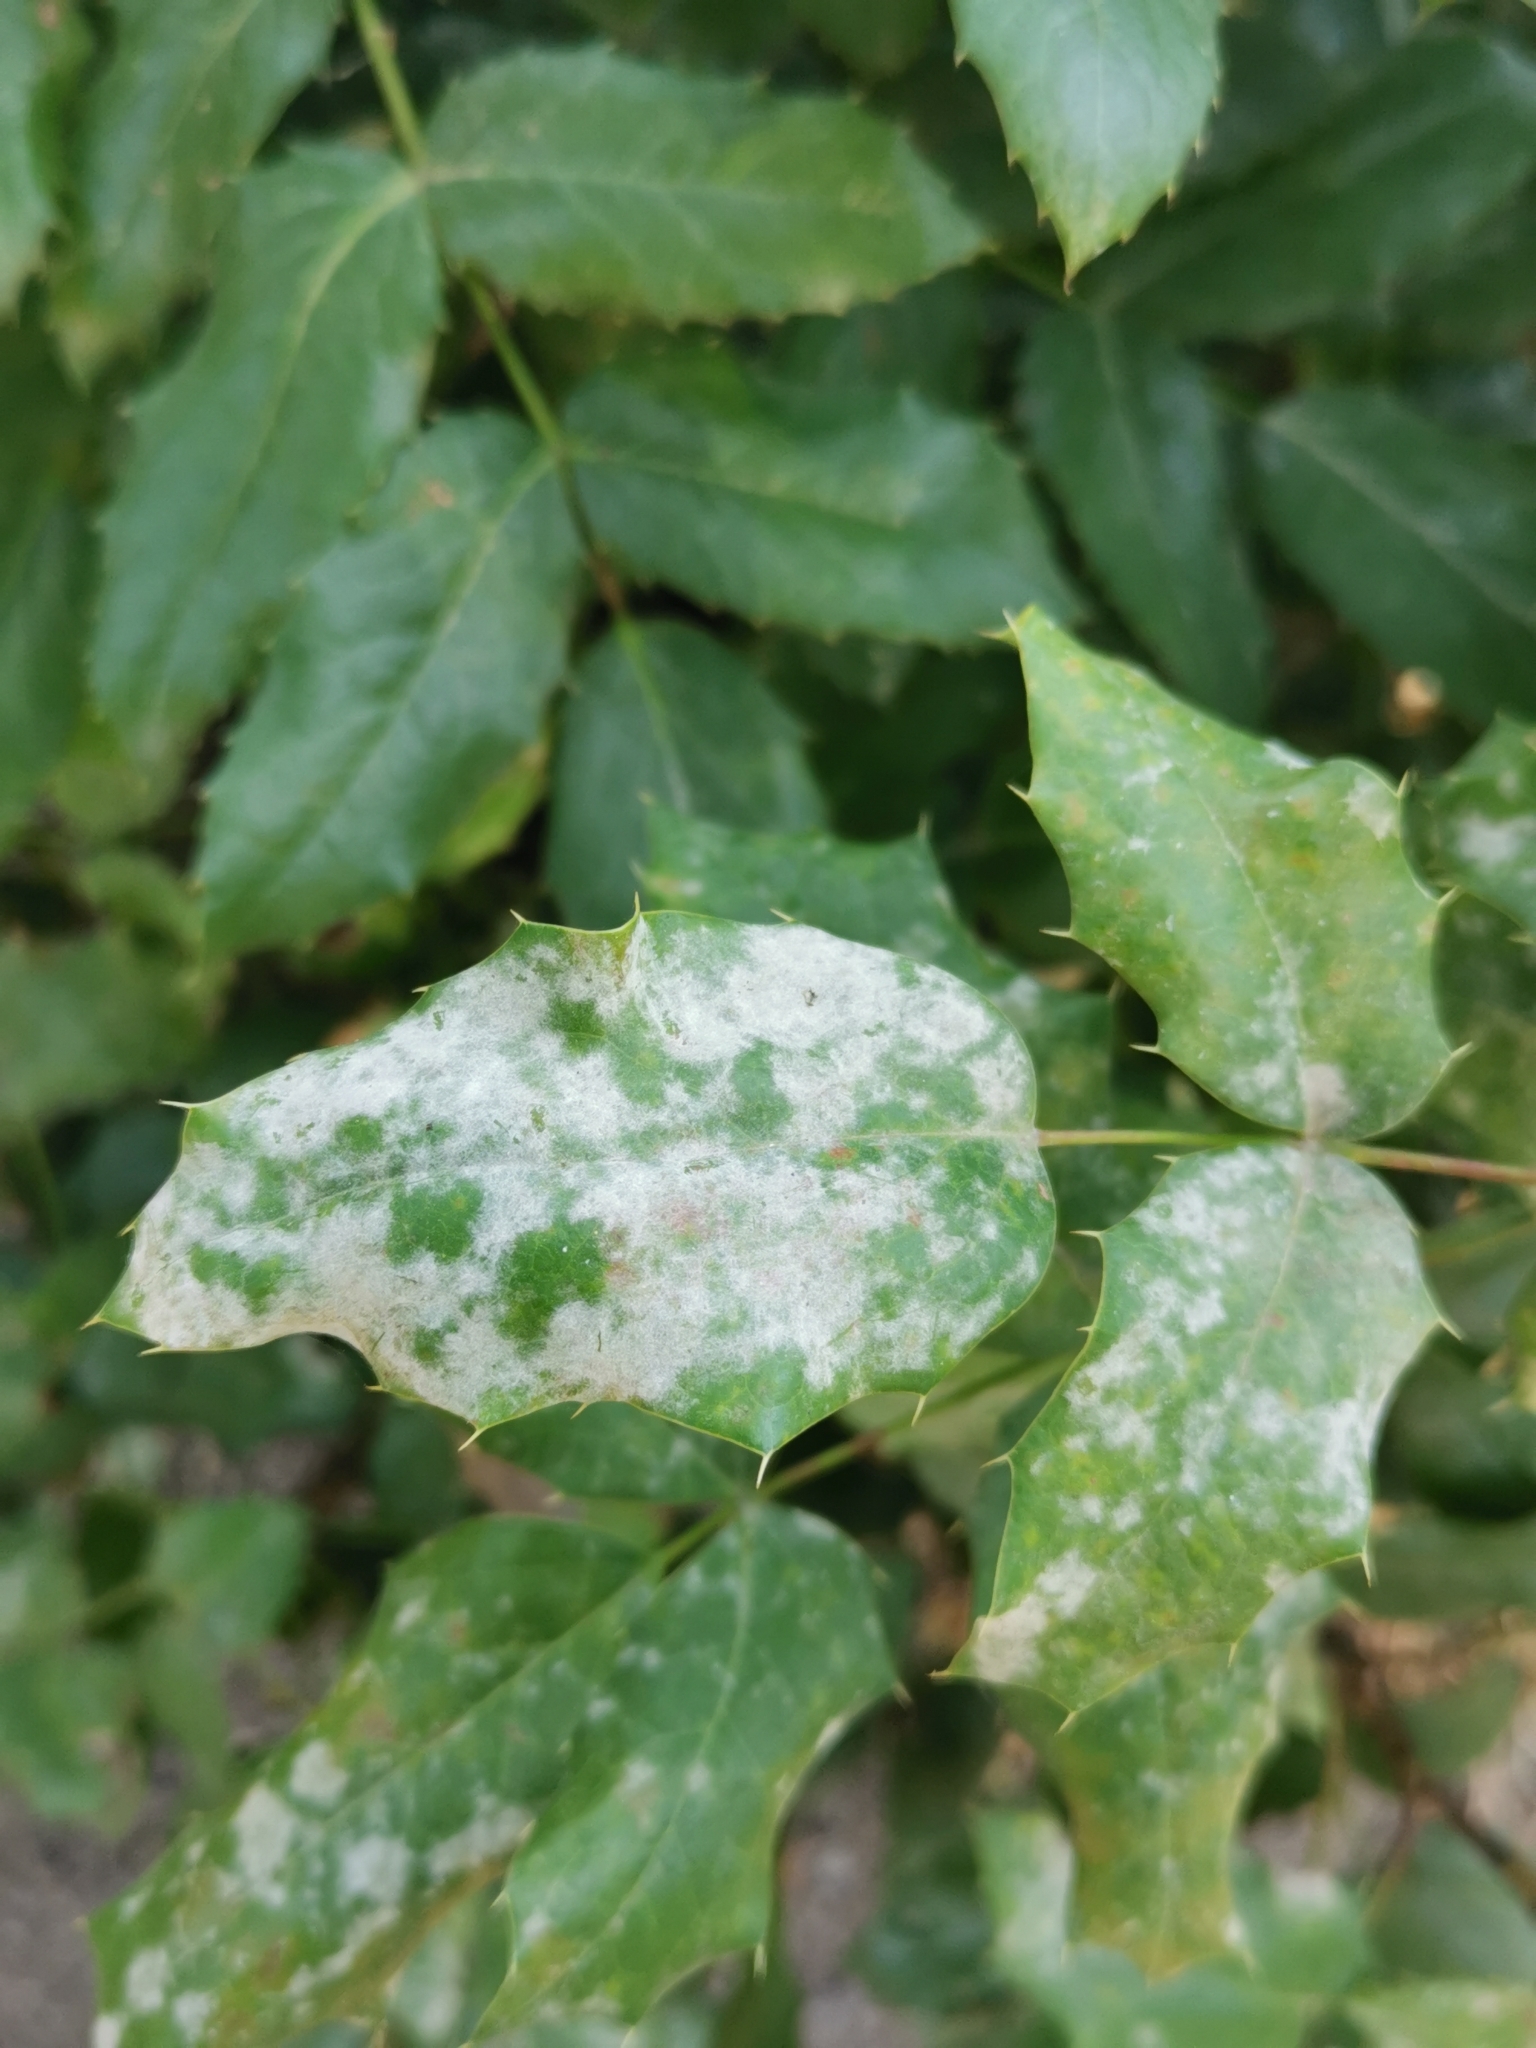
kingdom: Fungi
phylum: Ascomycota
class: Leotiomycetes
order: Helotiales
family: Erysiphaceae
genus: Erysiphe
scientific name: Erysiphe berberidis
